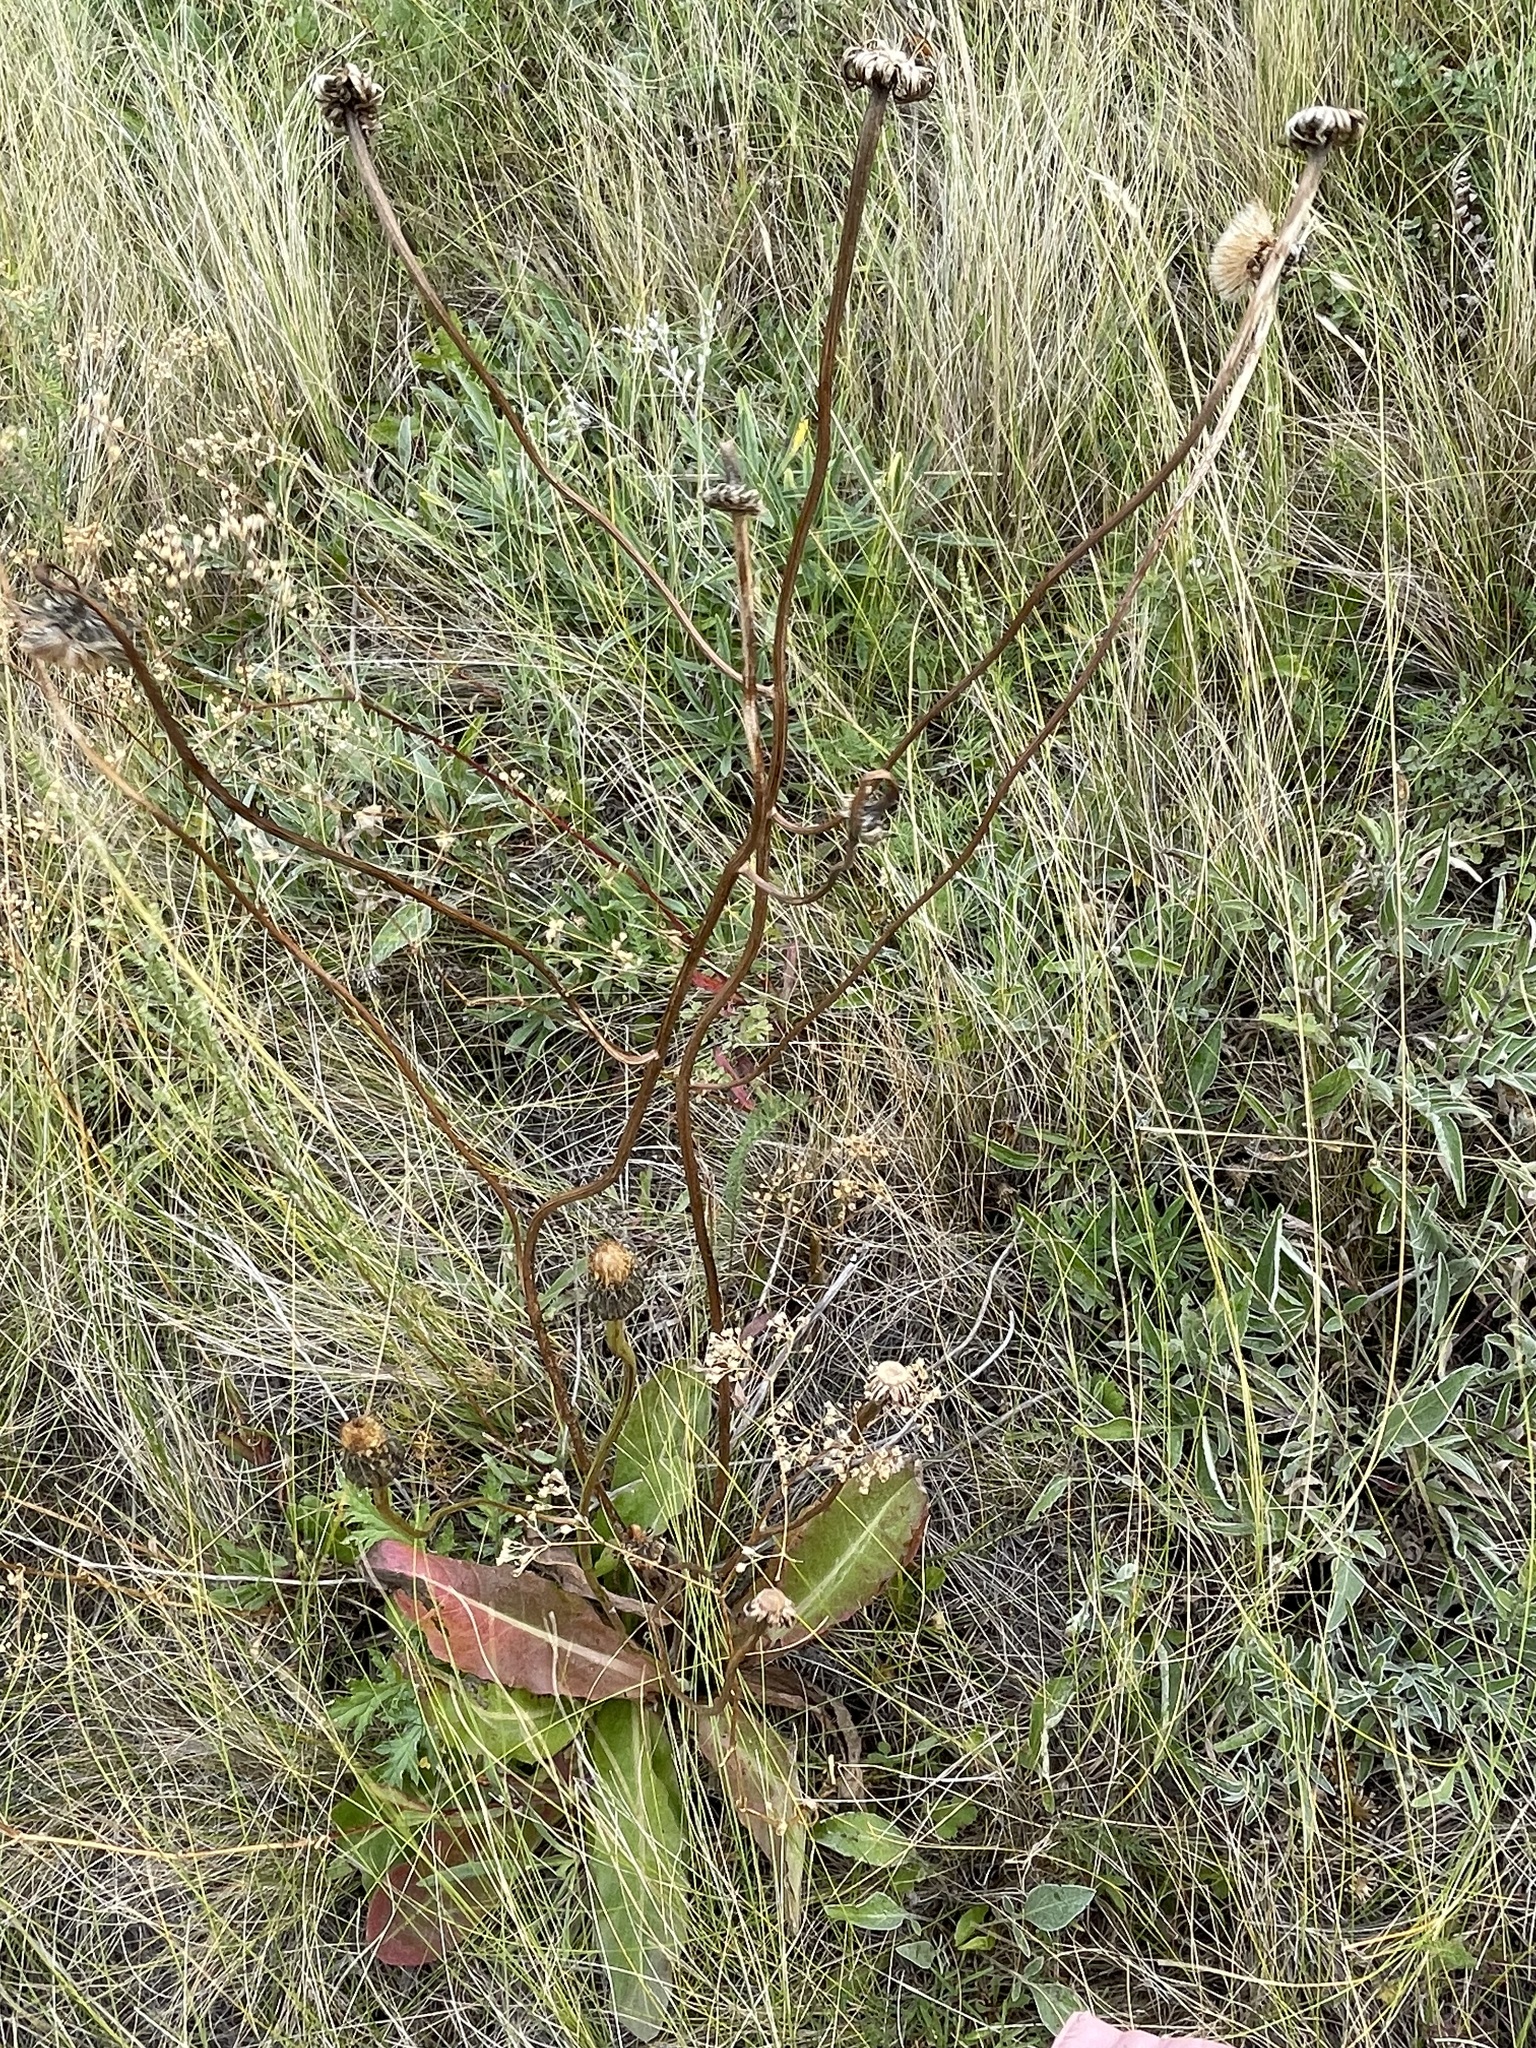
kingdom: Plantae
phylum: Tracheophyta
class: Magnoliopsida
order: Asterales
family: Asteraceae
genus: Trommsdorffia
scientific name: Trommsdorffia maculata
